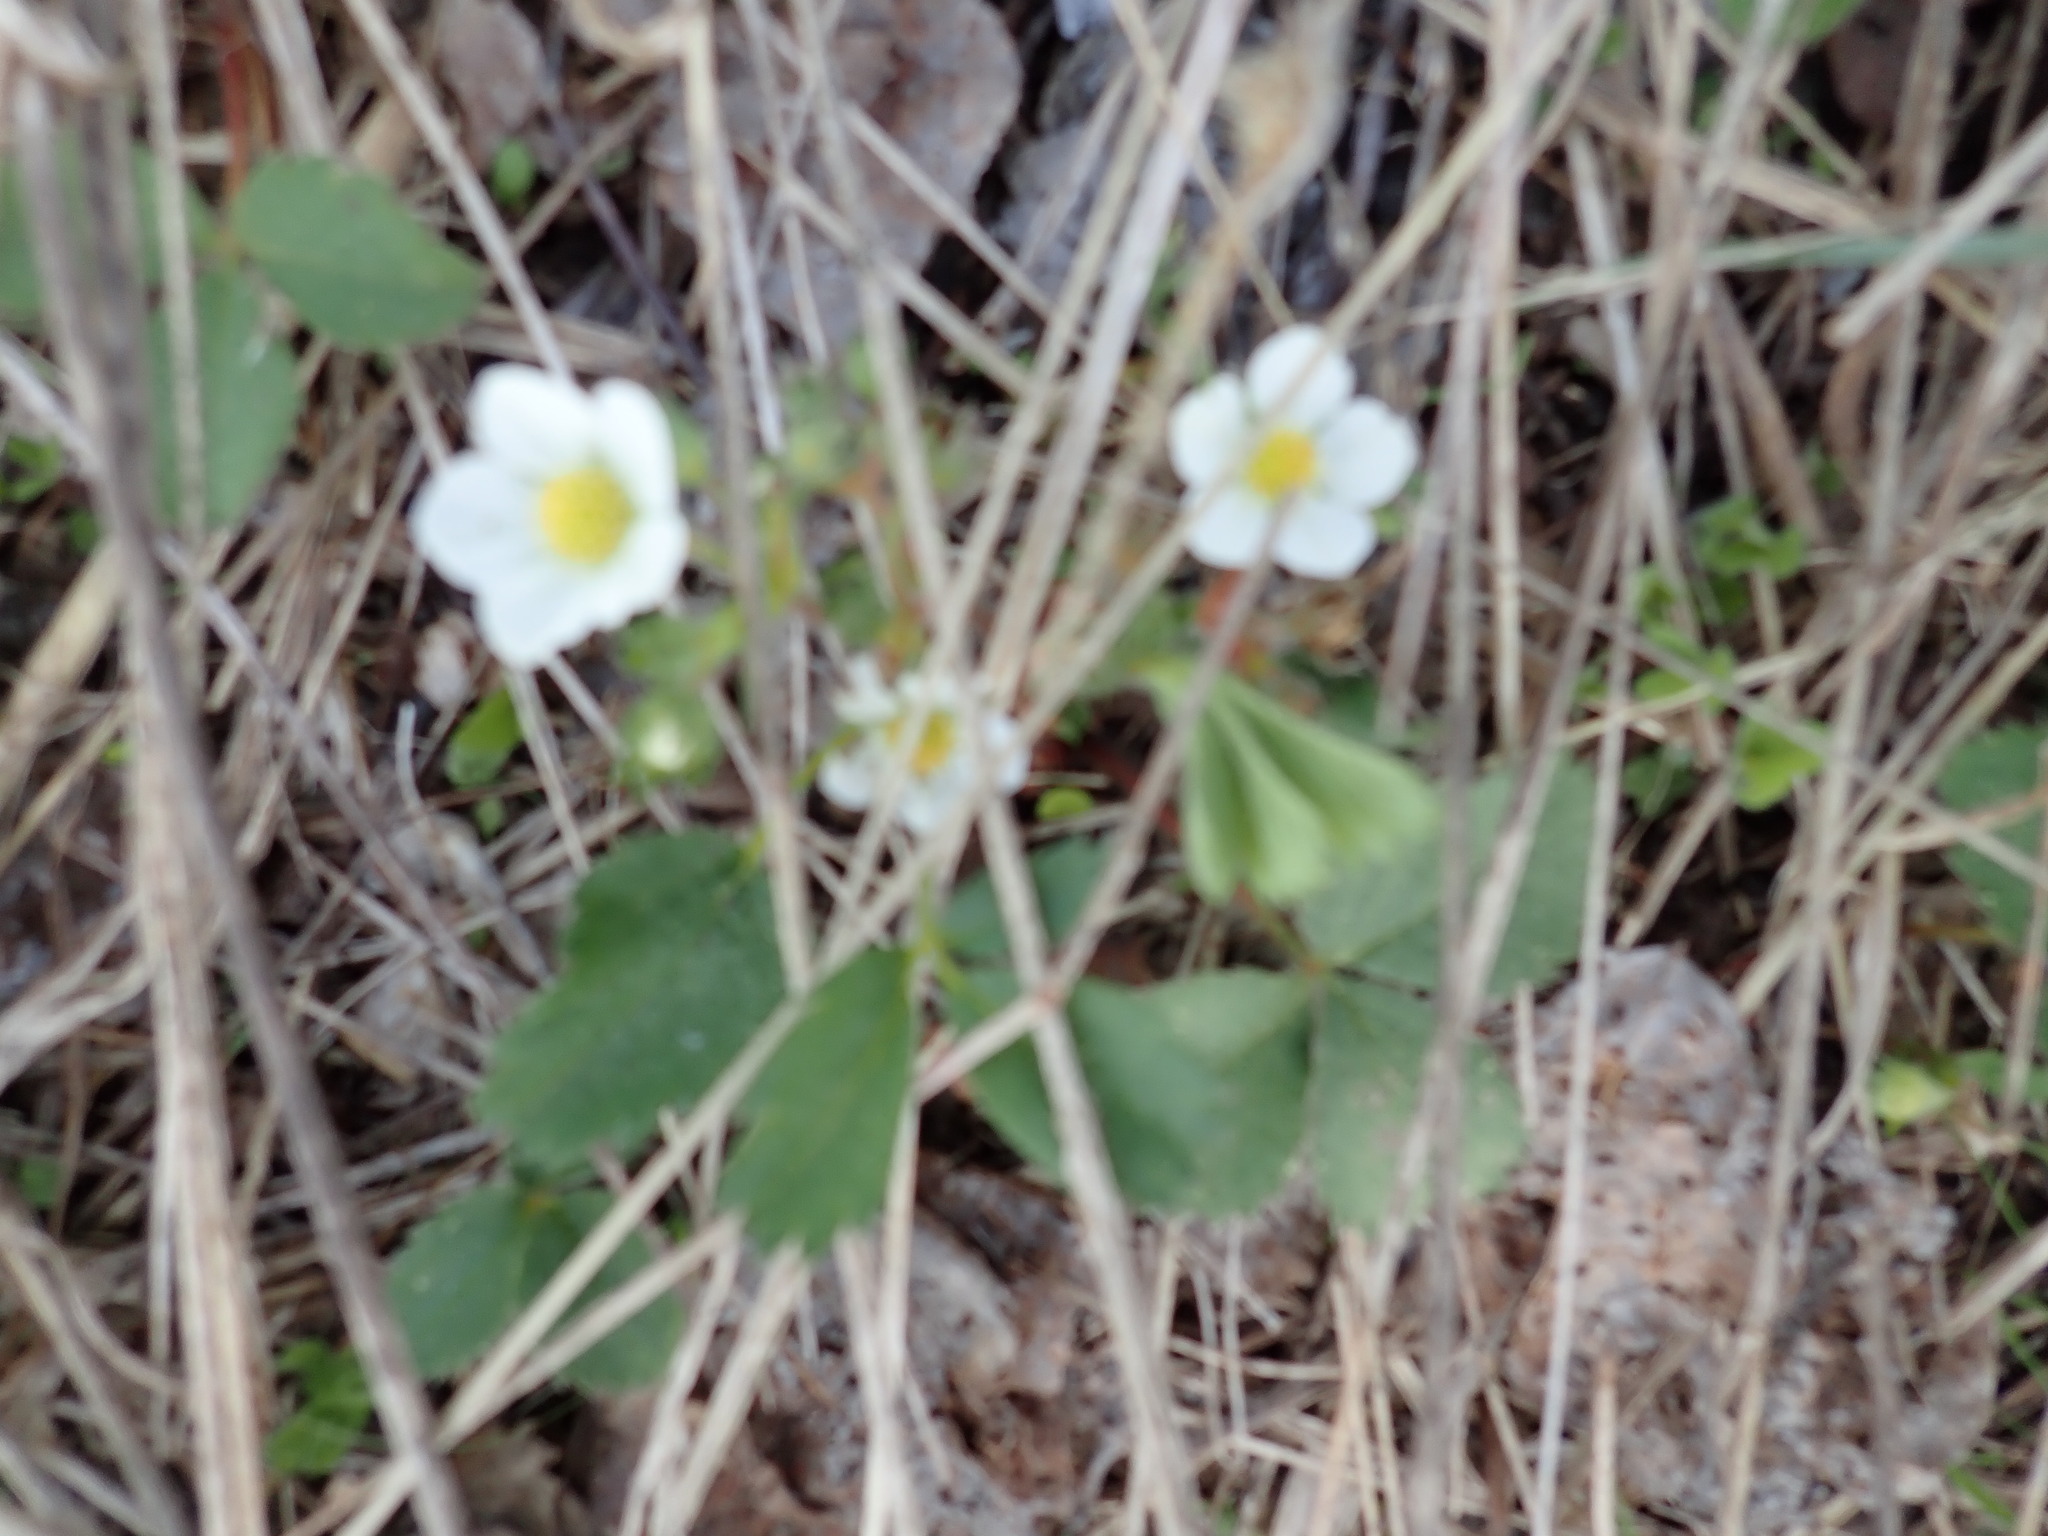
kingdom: Plantae
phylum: Tracheophyta
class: Magnoliopsida
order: Rosales
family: Rosaceae
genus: Fragaria
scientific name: Fragaria virginiana
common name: Thickleaved wild strawberry
